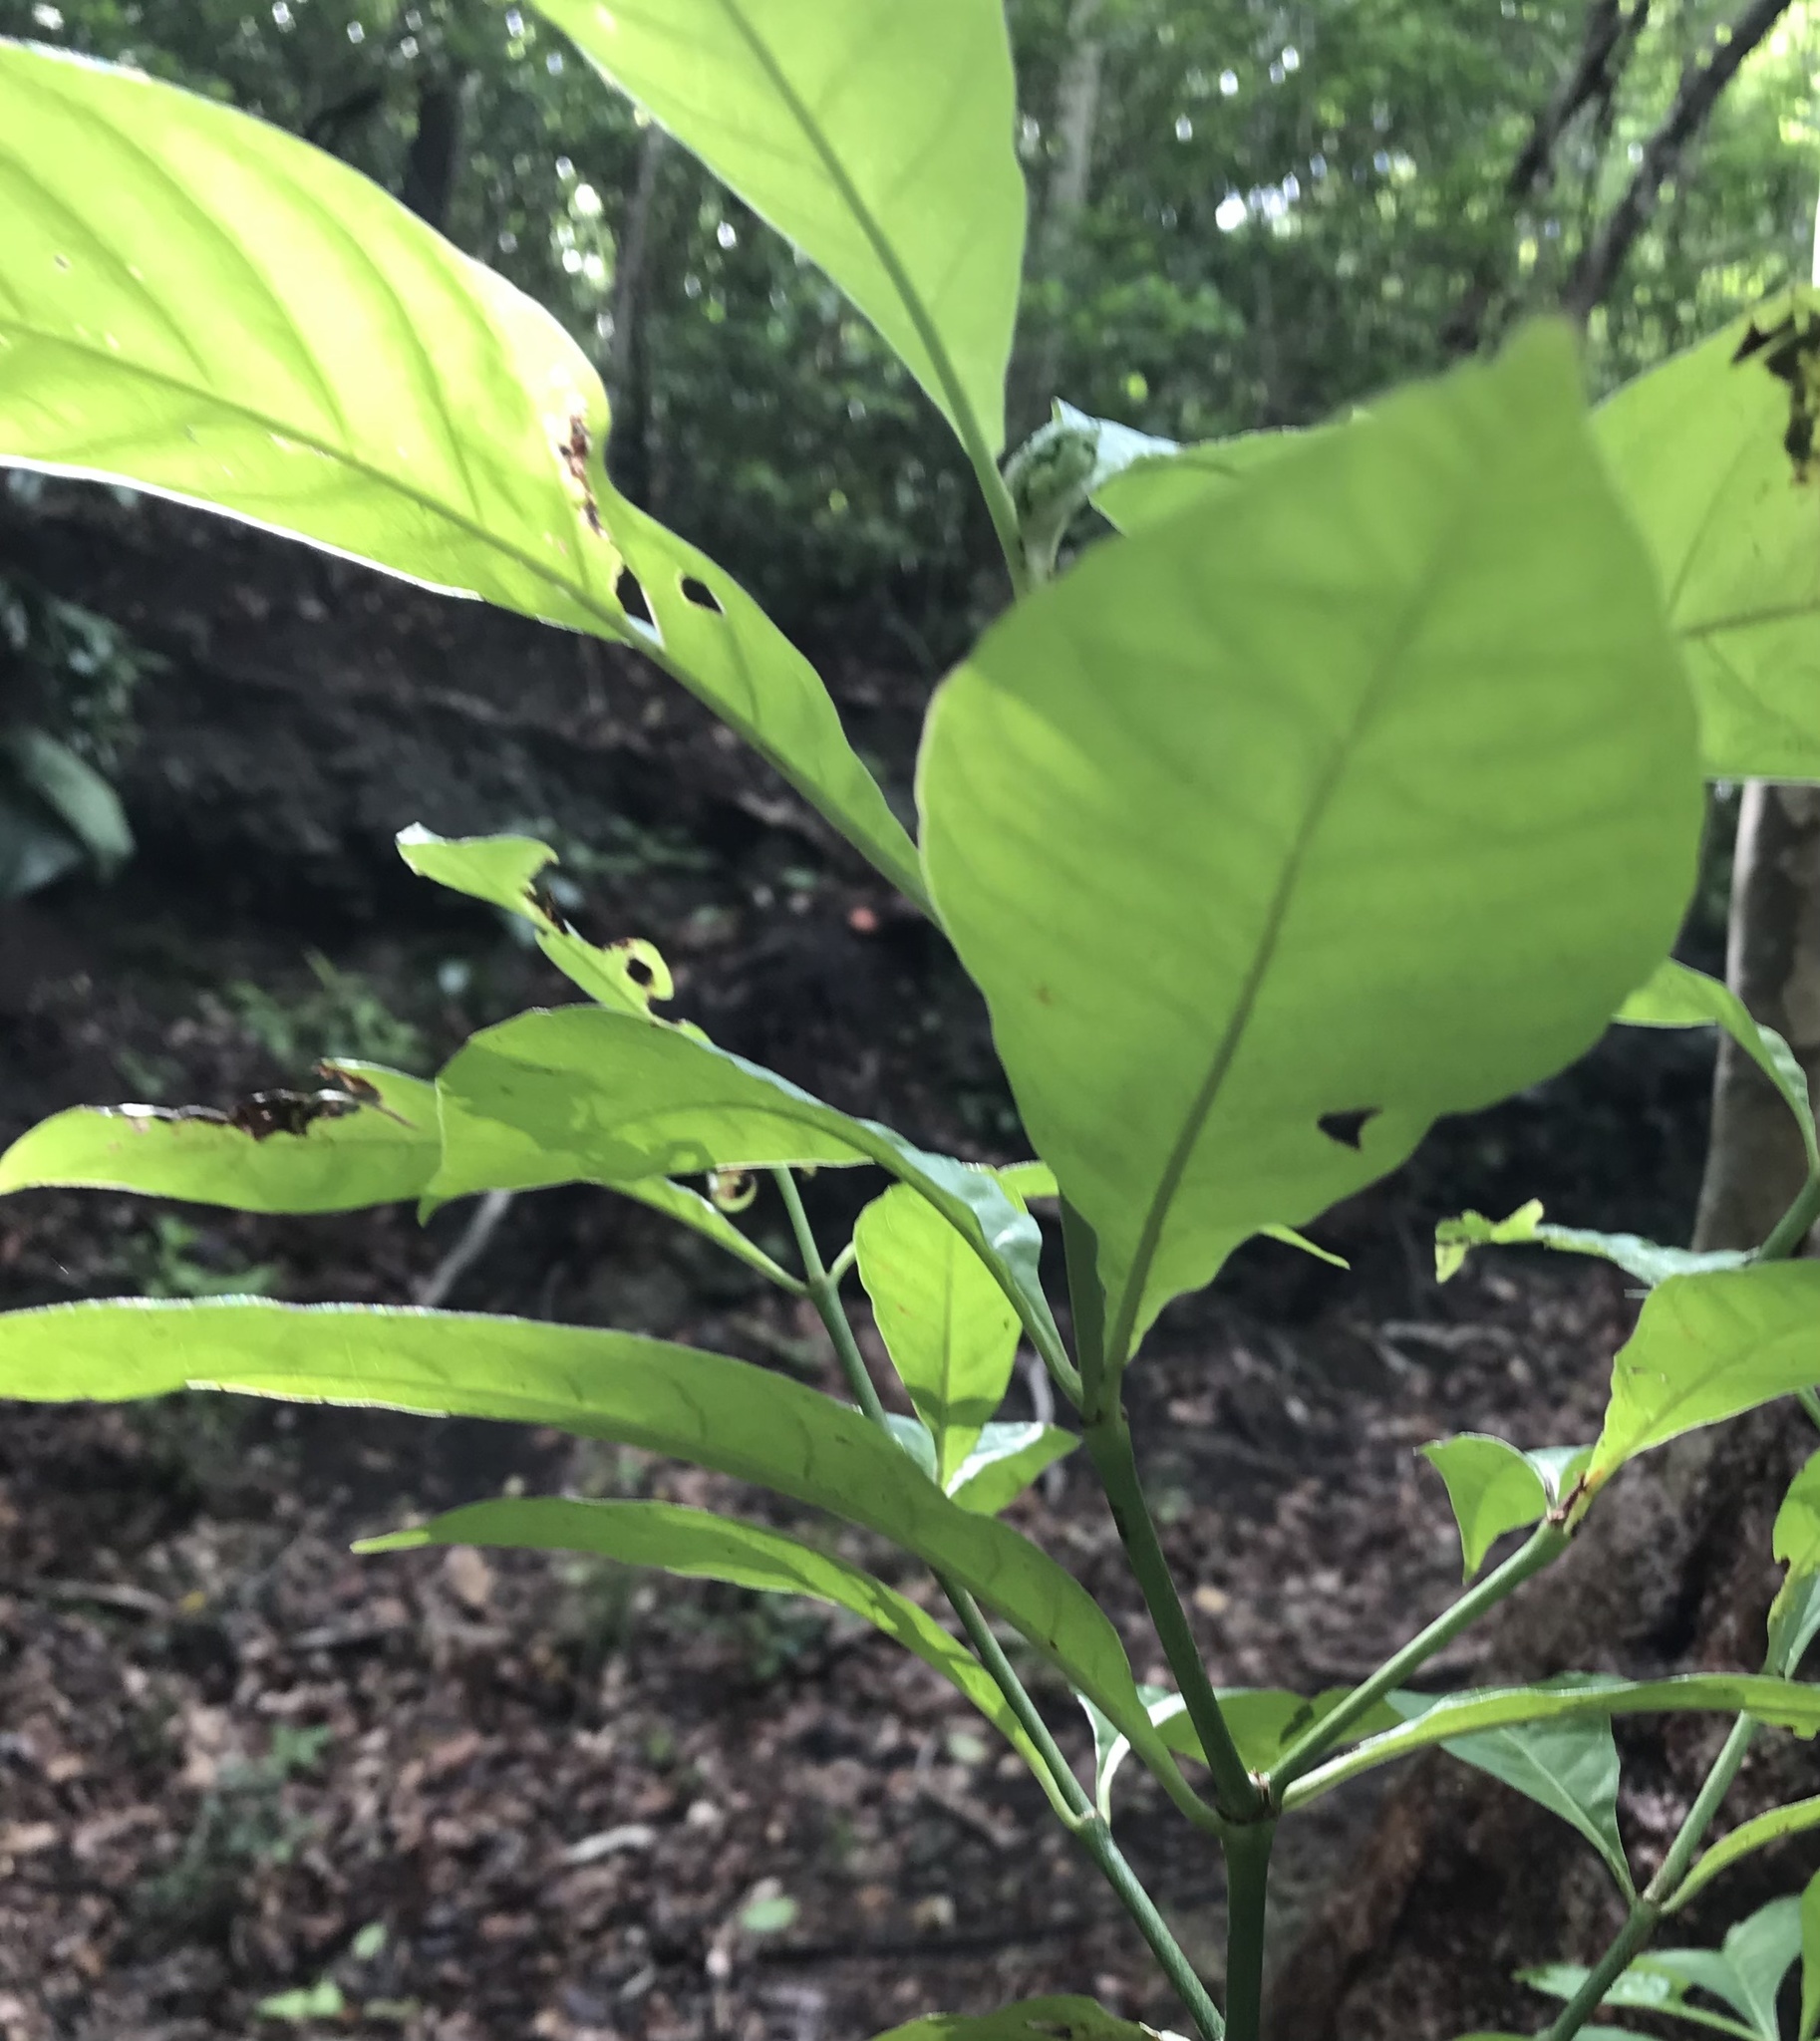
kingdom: Plantae
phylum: Tracheophyta
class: Magnoliopsida
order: Gentianales
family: Rubiaceae
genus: Psychotria
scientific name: Psychotria nervosa
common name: Bastard cankerberry
